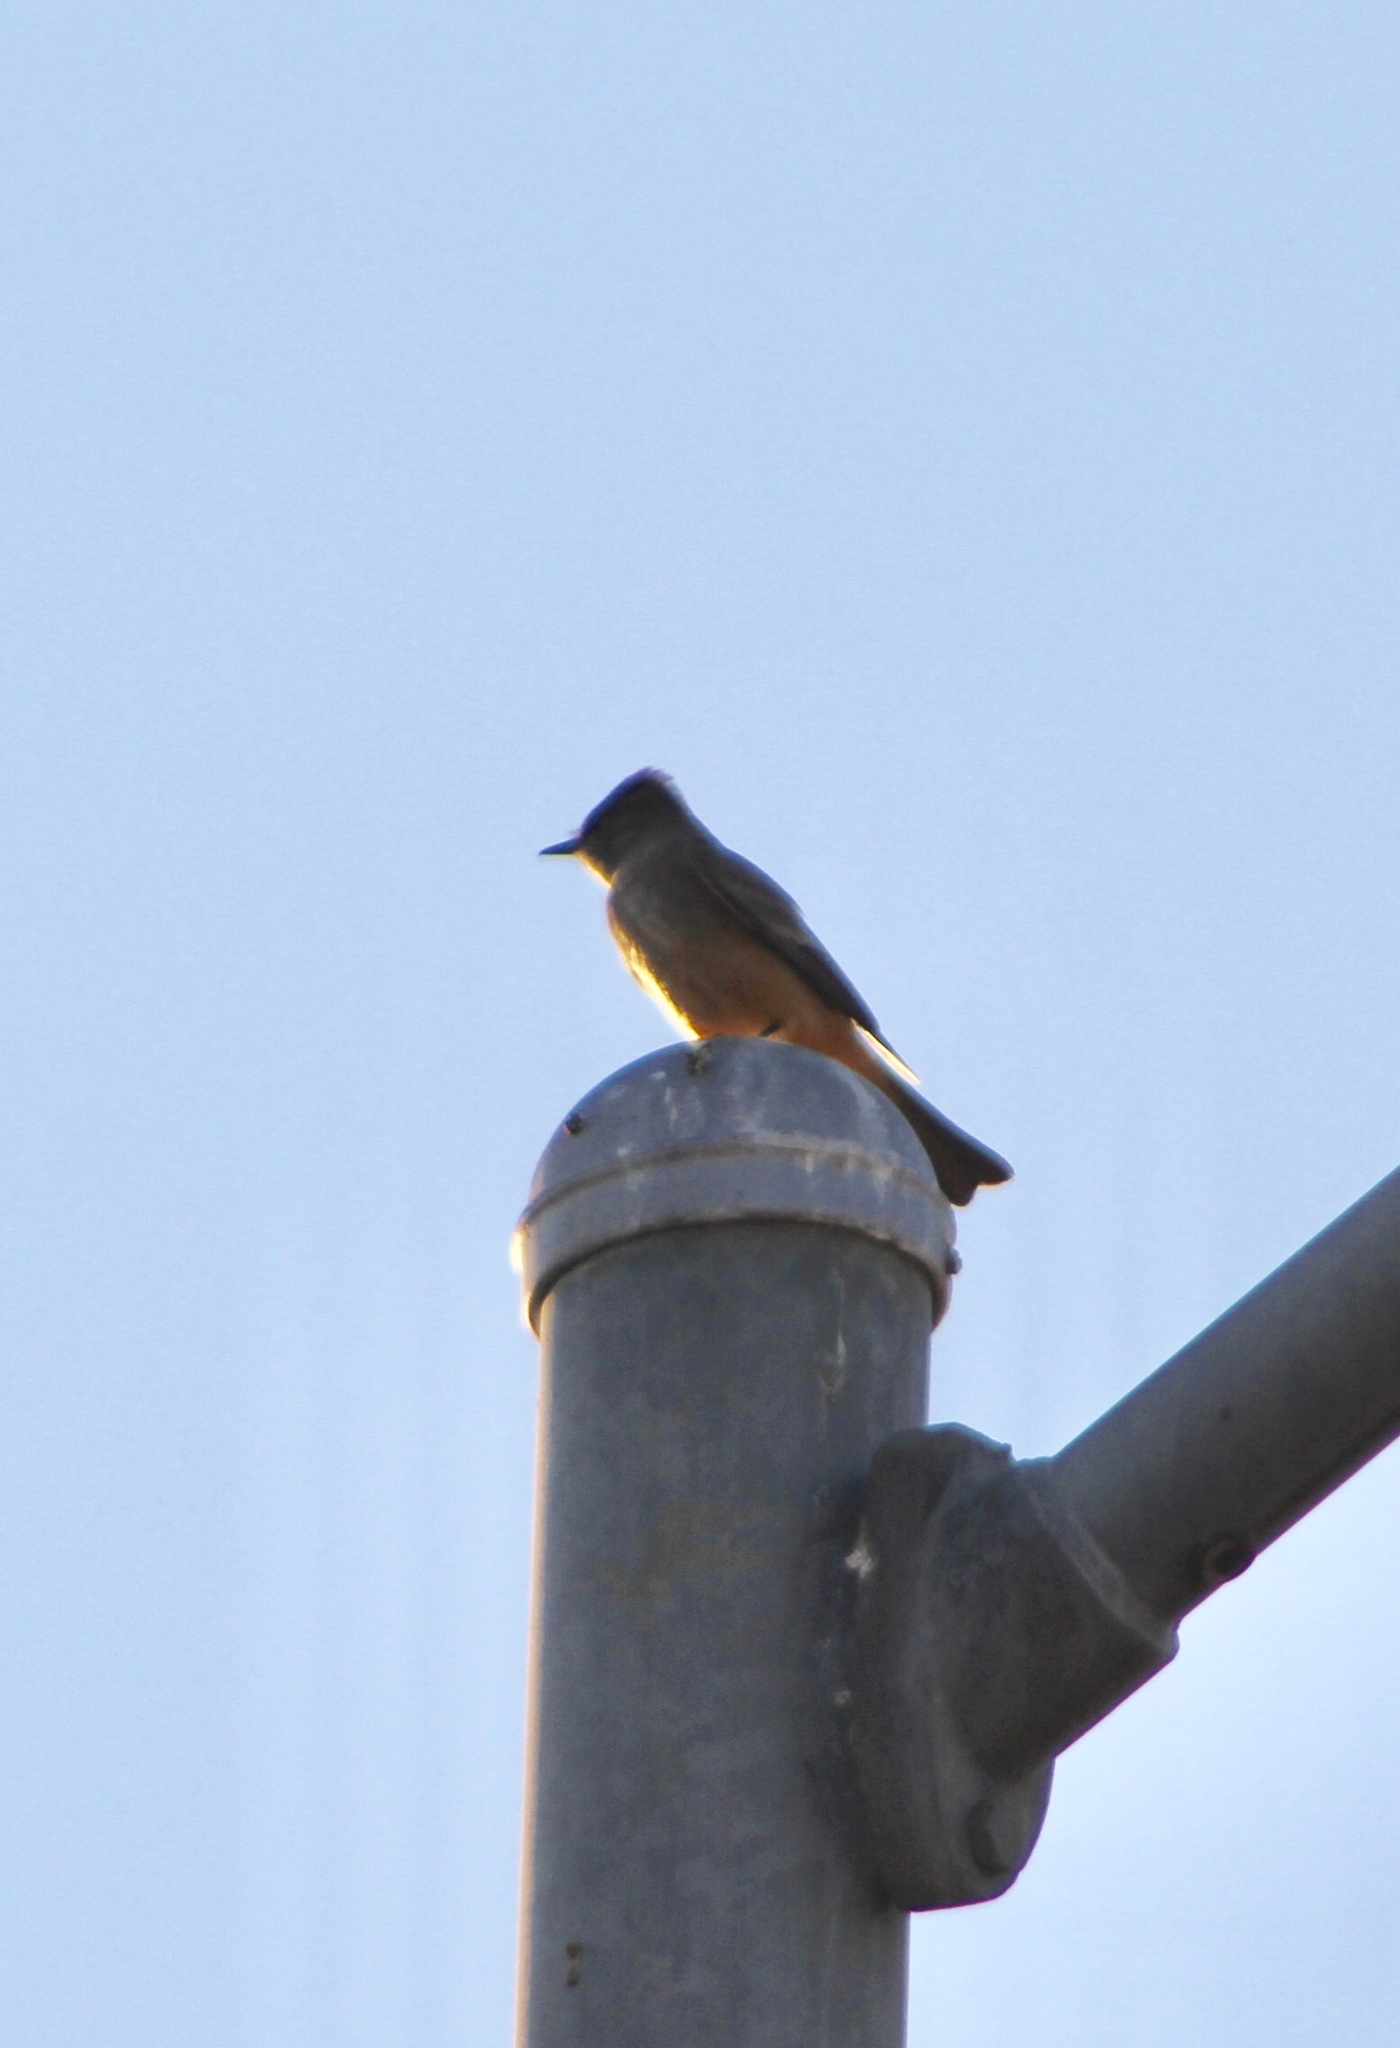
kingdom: Animalia
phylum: Chordata
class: Aves
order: Passeriformes
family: Tyrannidae
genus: Sayornis
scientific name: Sayornis saya
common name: Say's phoebe
